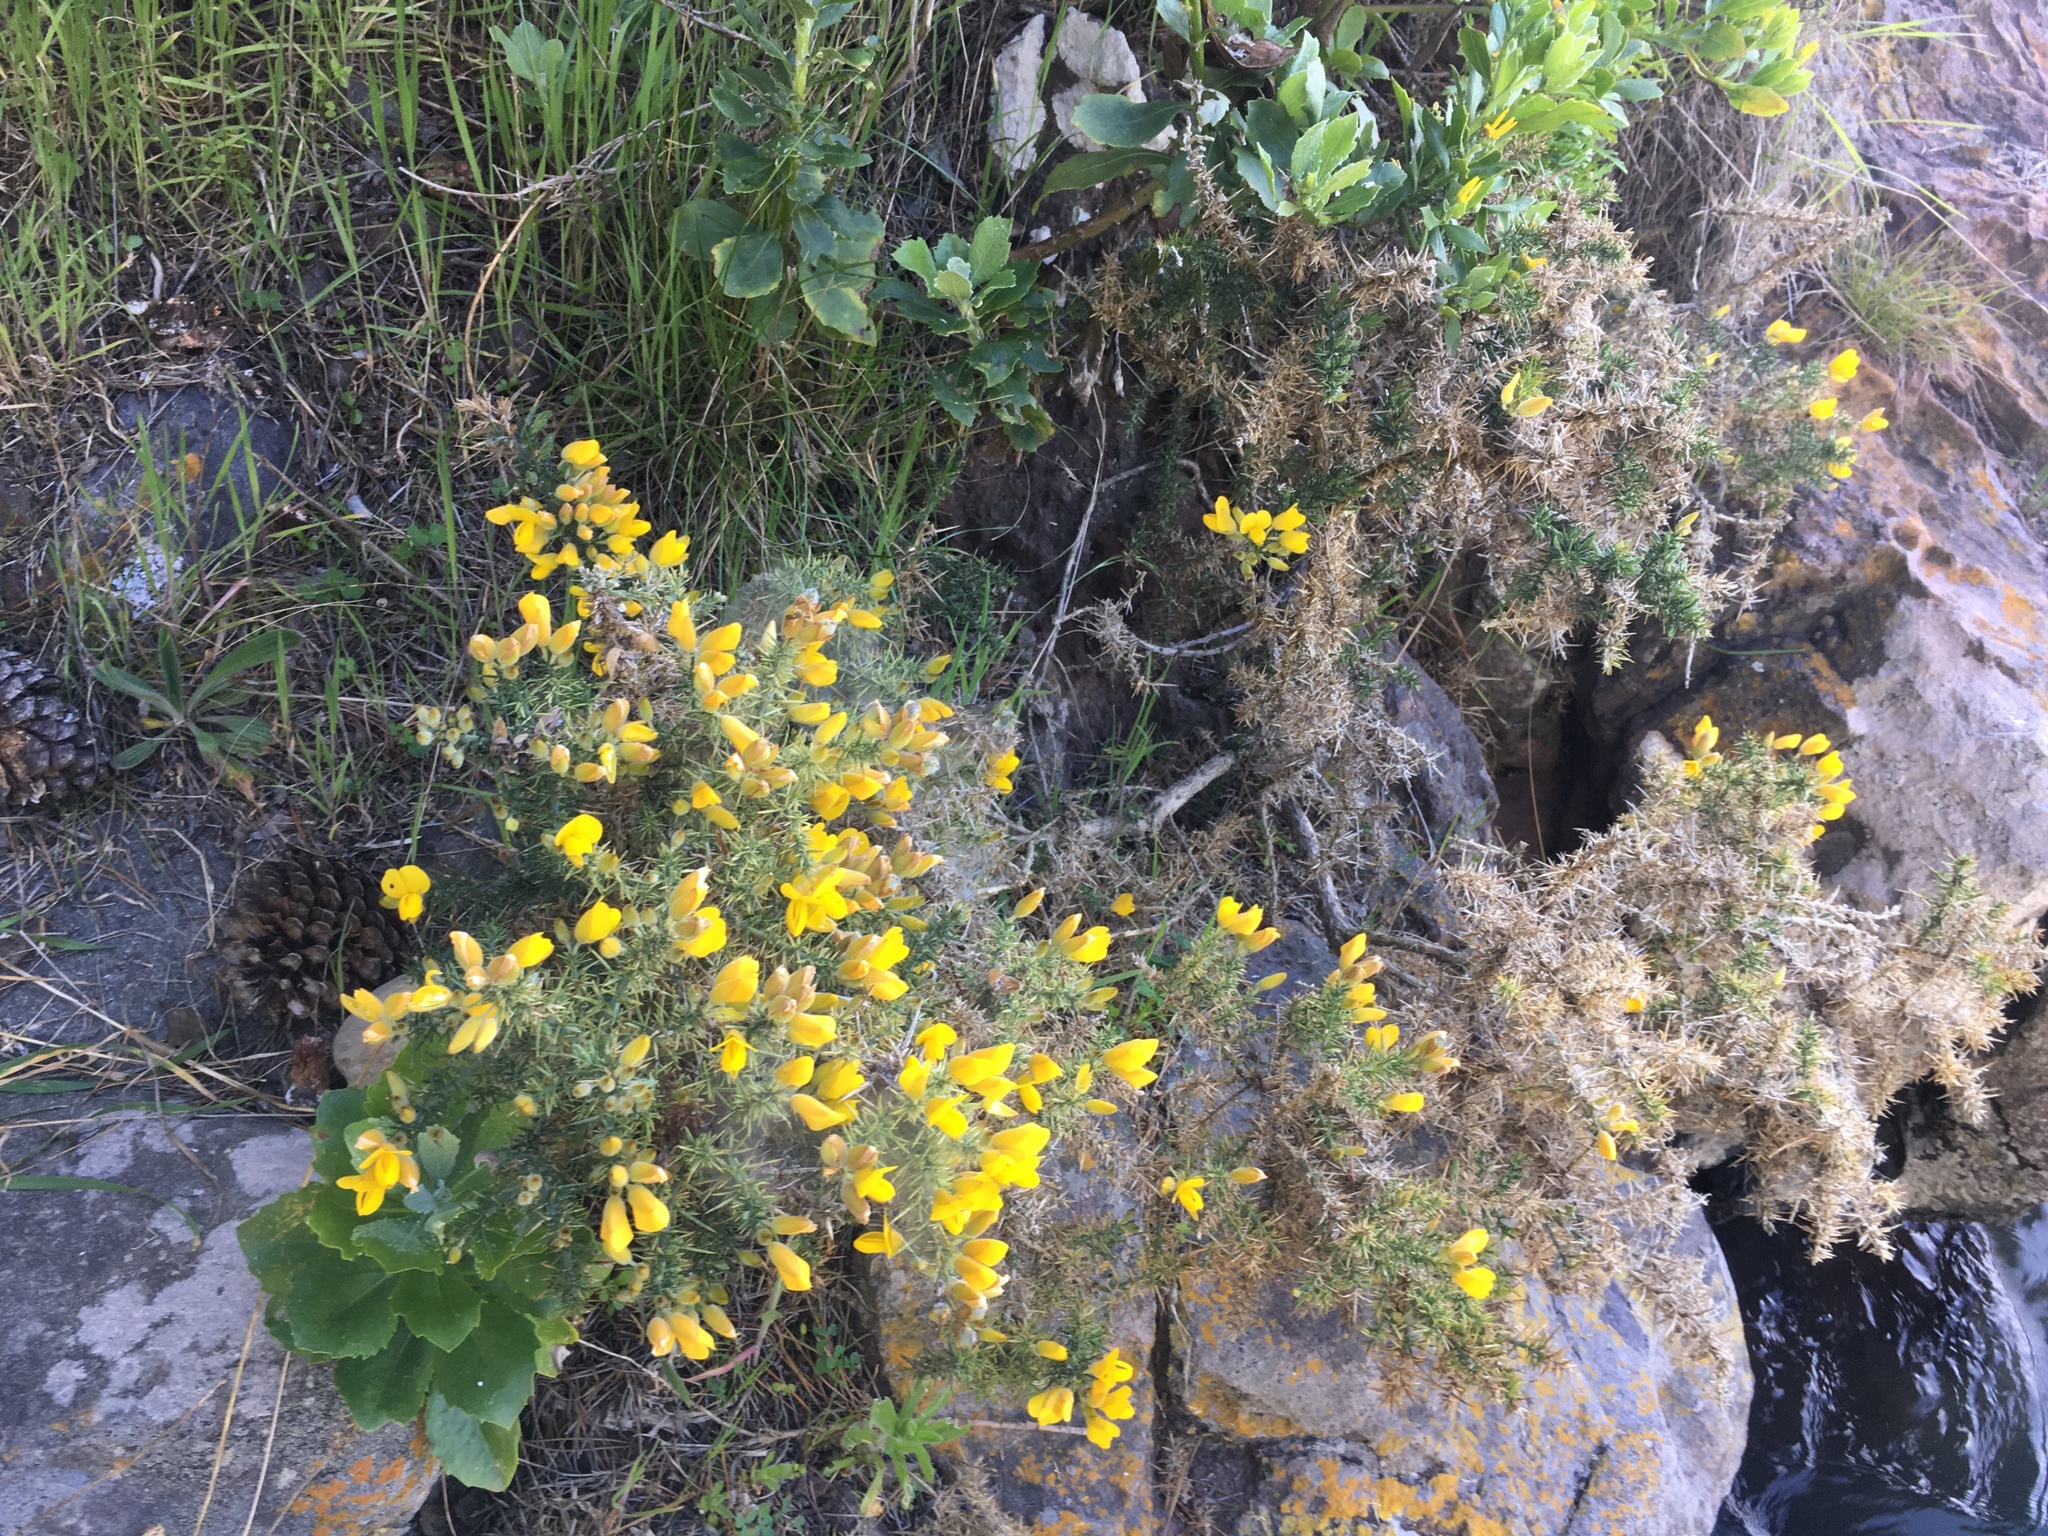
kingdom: Plantae
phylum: Tracheophyta
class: Magnoliopsida
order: Fabales
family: Fabaceae
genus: Ulex
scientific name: Ulex europaeus
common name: Common gorse
